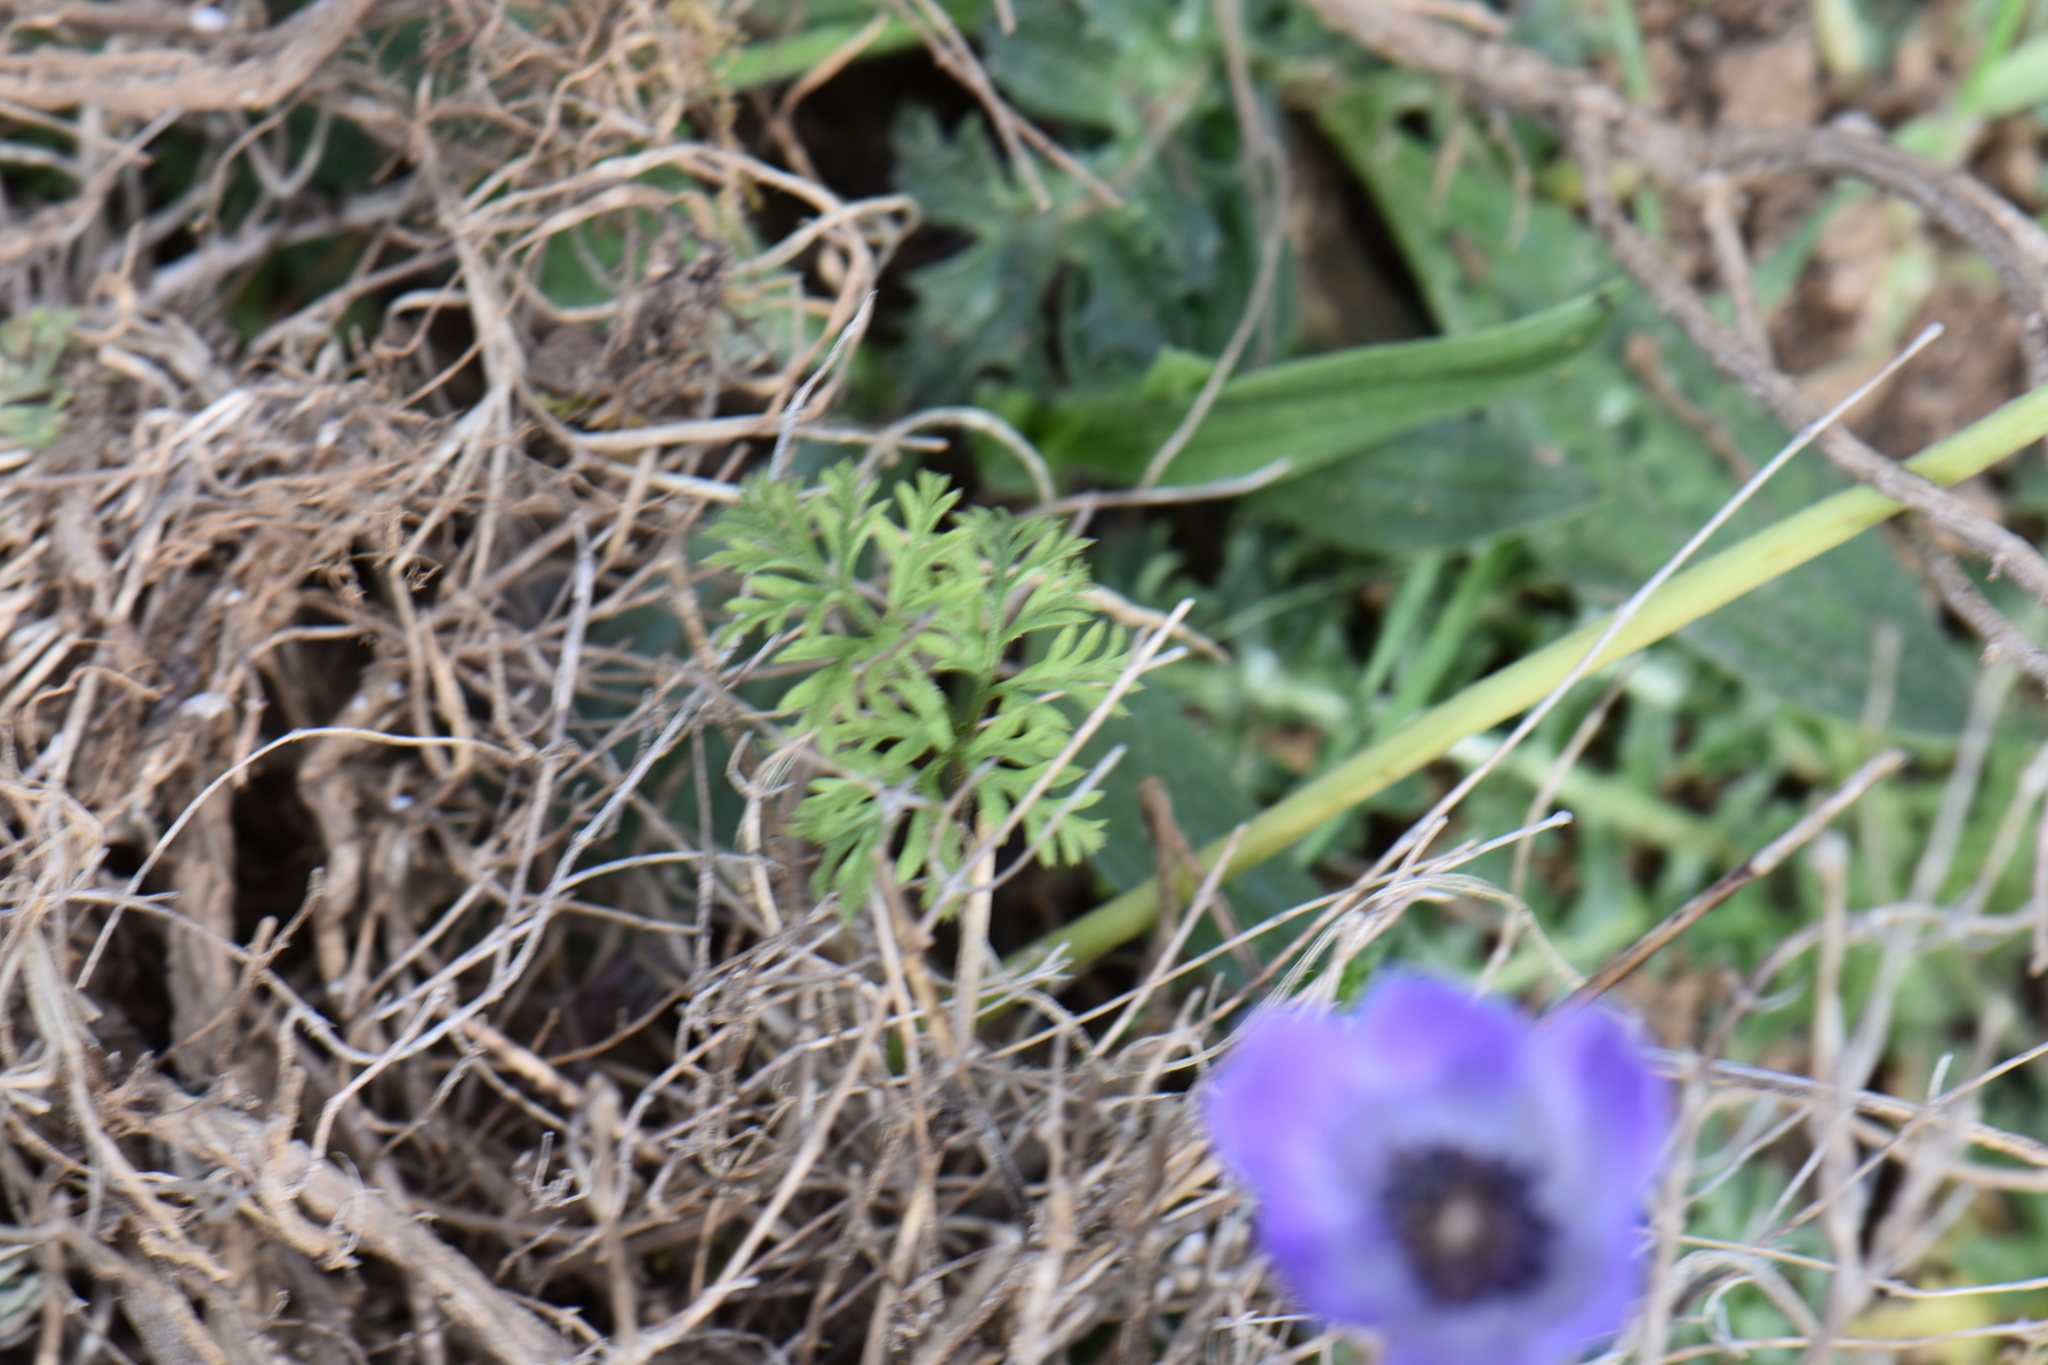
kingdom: Plantae
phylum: Tracheophyta
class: Magnoliopsida
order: Ranunculales
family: Ranunculaceae
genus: Anemone
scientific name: Anemone coronaria
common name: Poppy anemone
